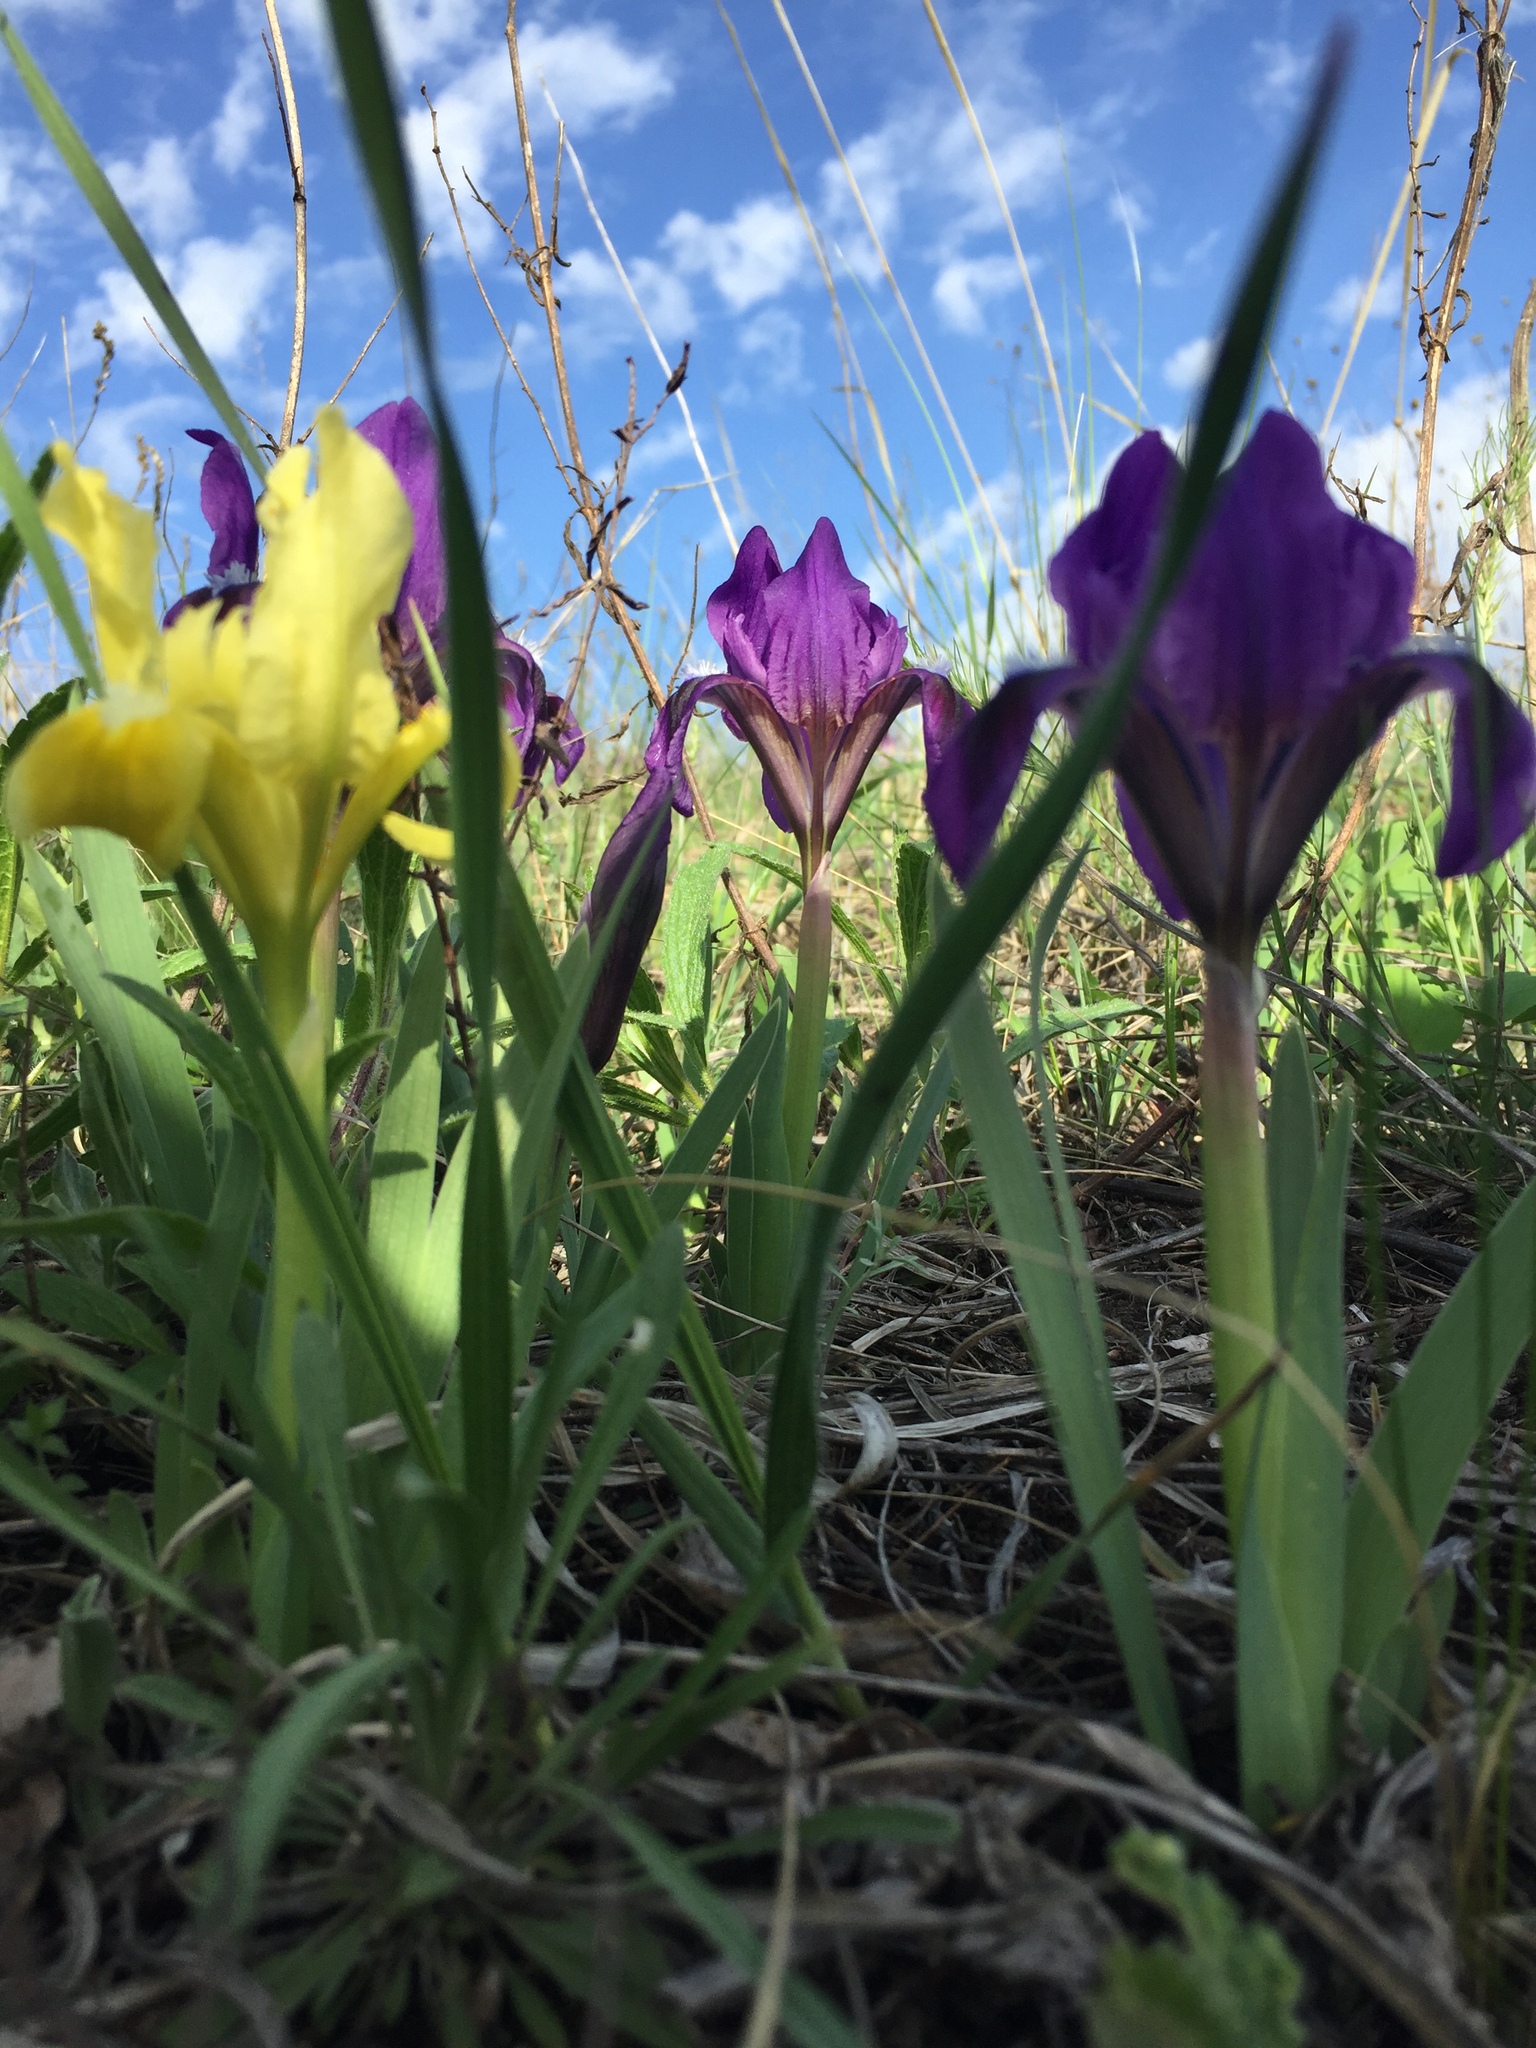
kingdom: Plantae
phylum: Tracheophyta
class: Liliopsida
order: Asparagales
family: Iridaceae
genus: Iris
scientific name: Iris pumila
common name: Dwarf iris
